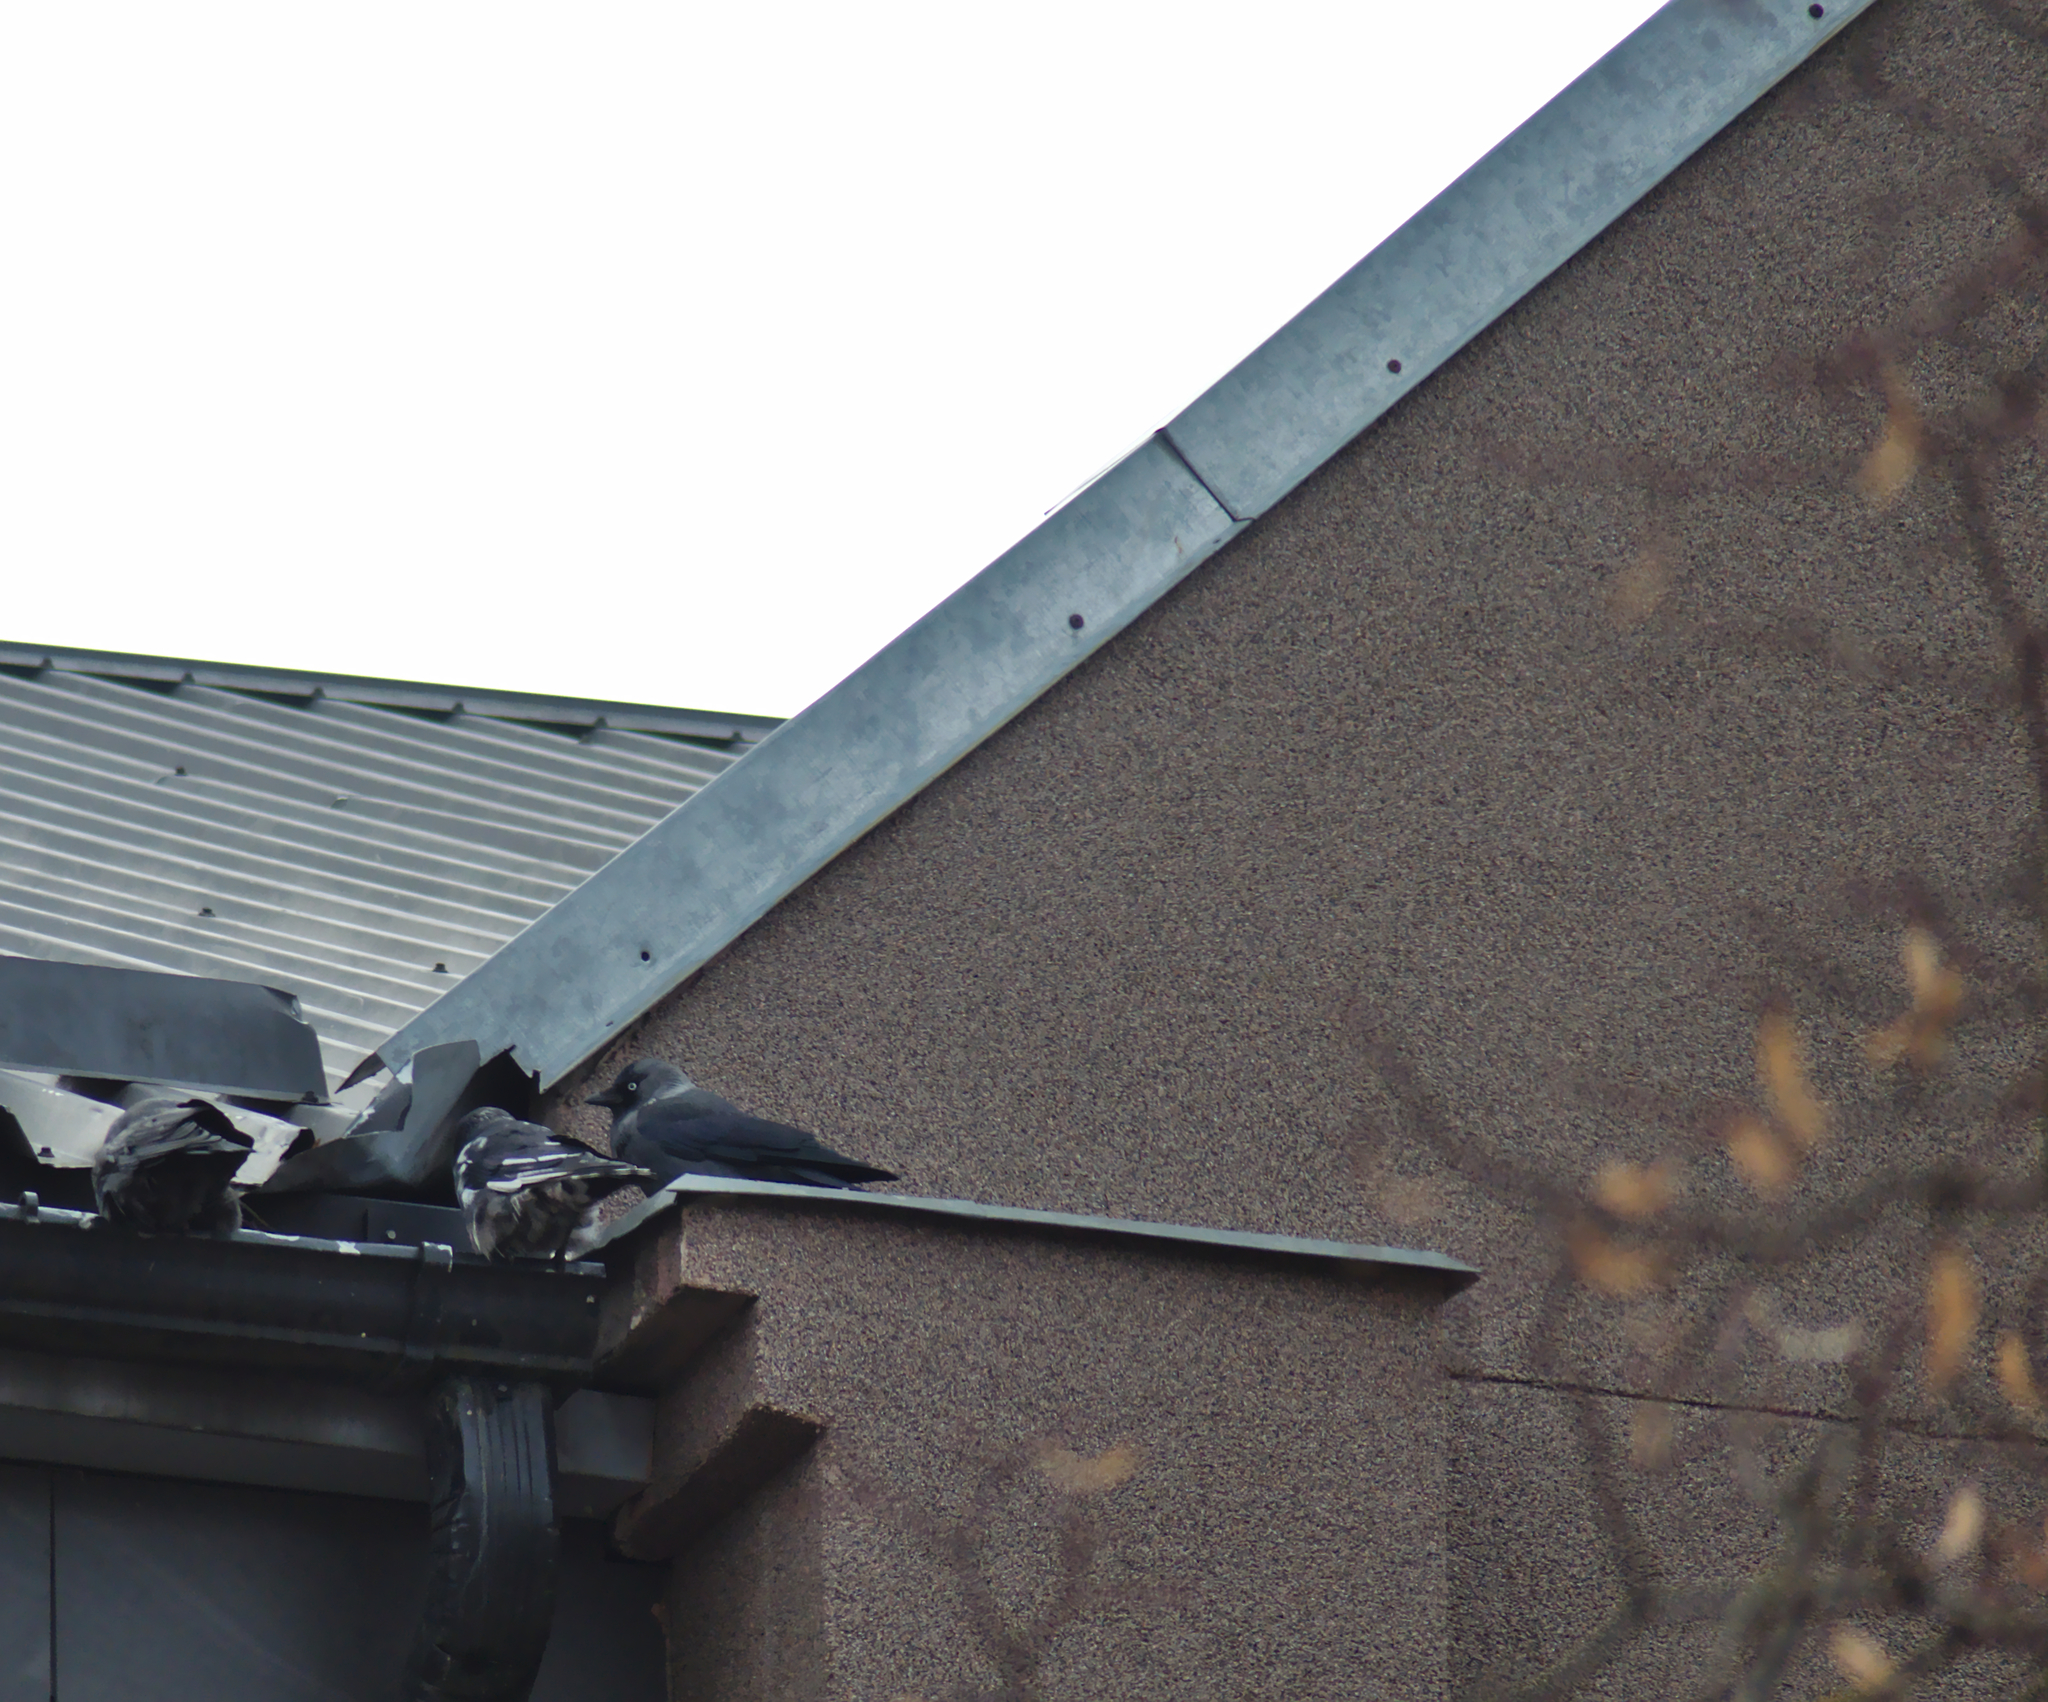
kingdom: Animalia
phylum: Chordata
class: Aves
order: Passeriformes
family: Corvidae
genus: Coloeus
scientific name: Coloeus monedula
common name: Western jackdaw
